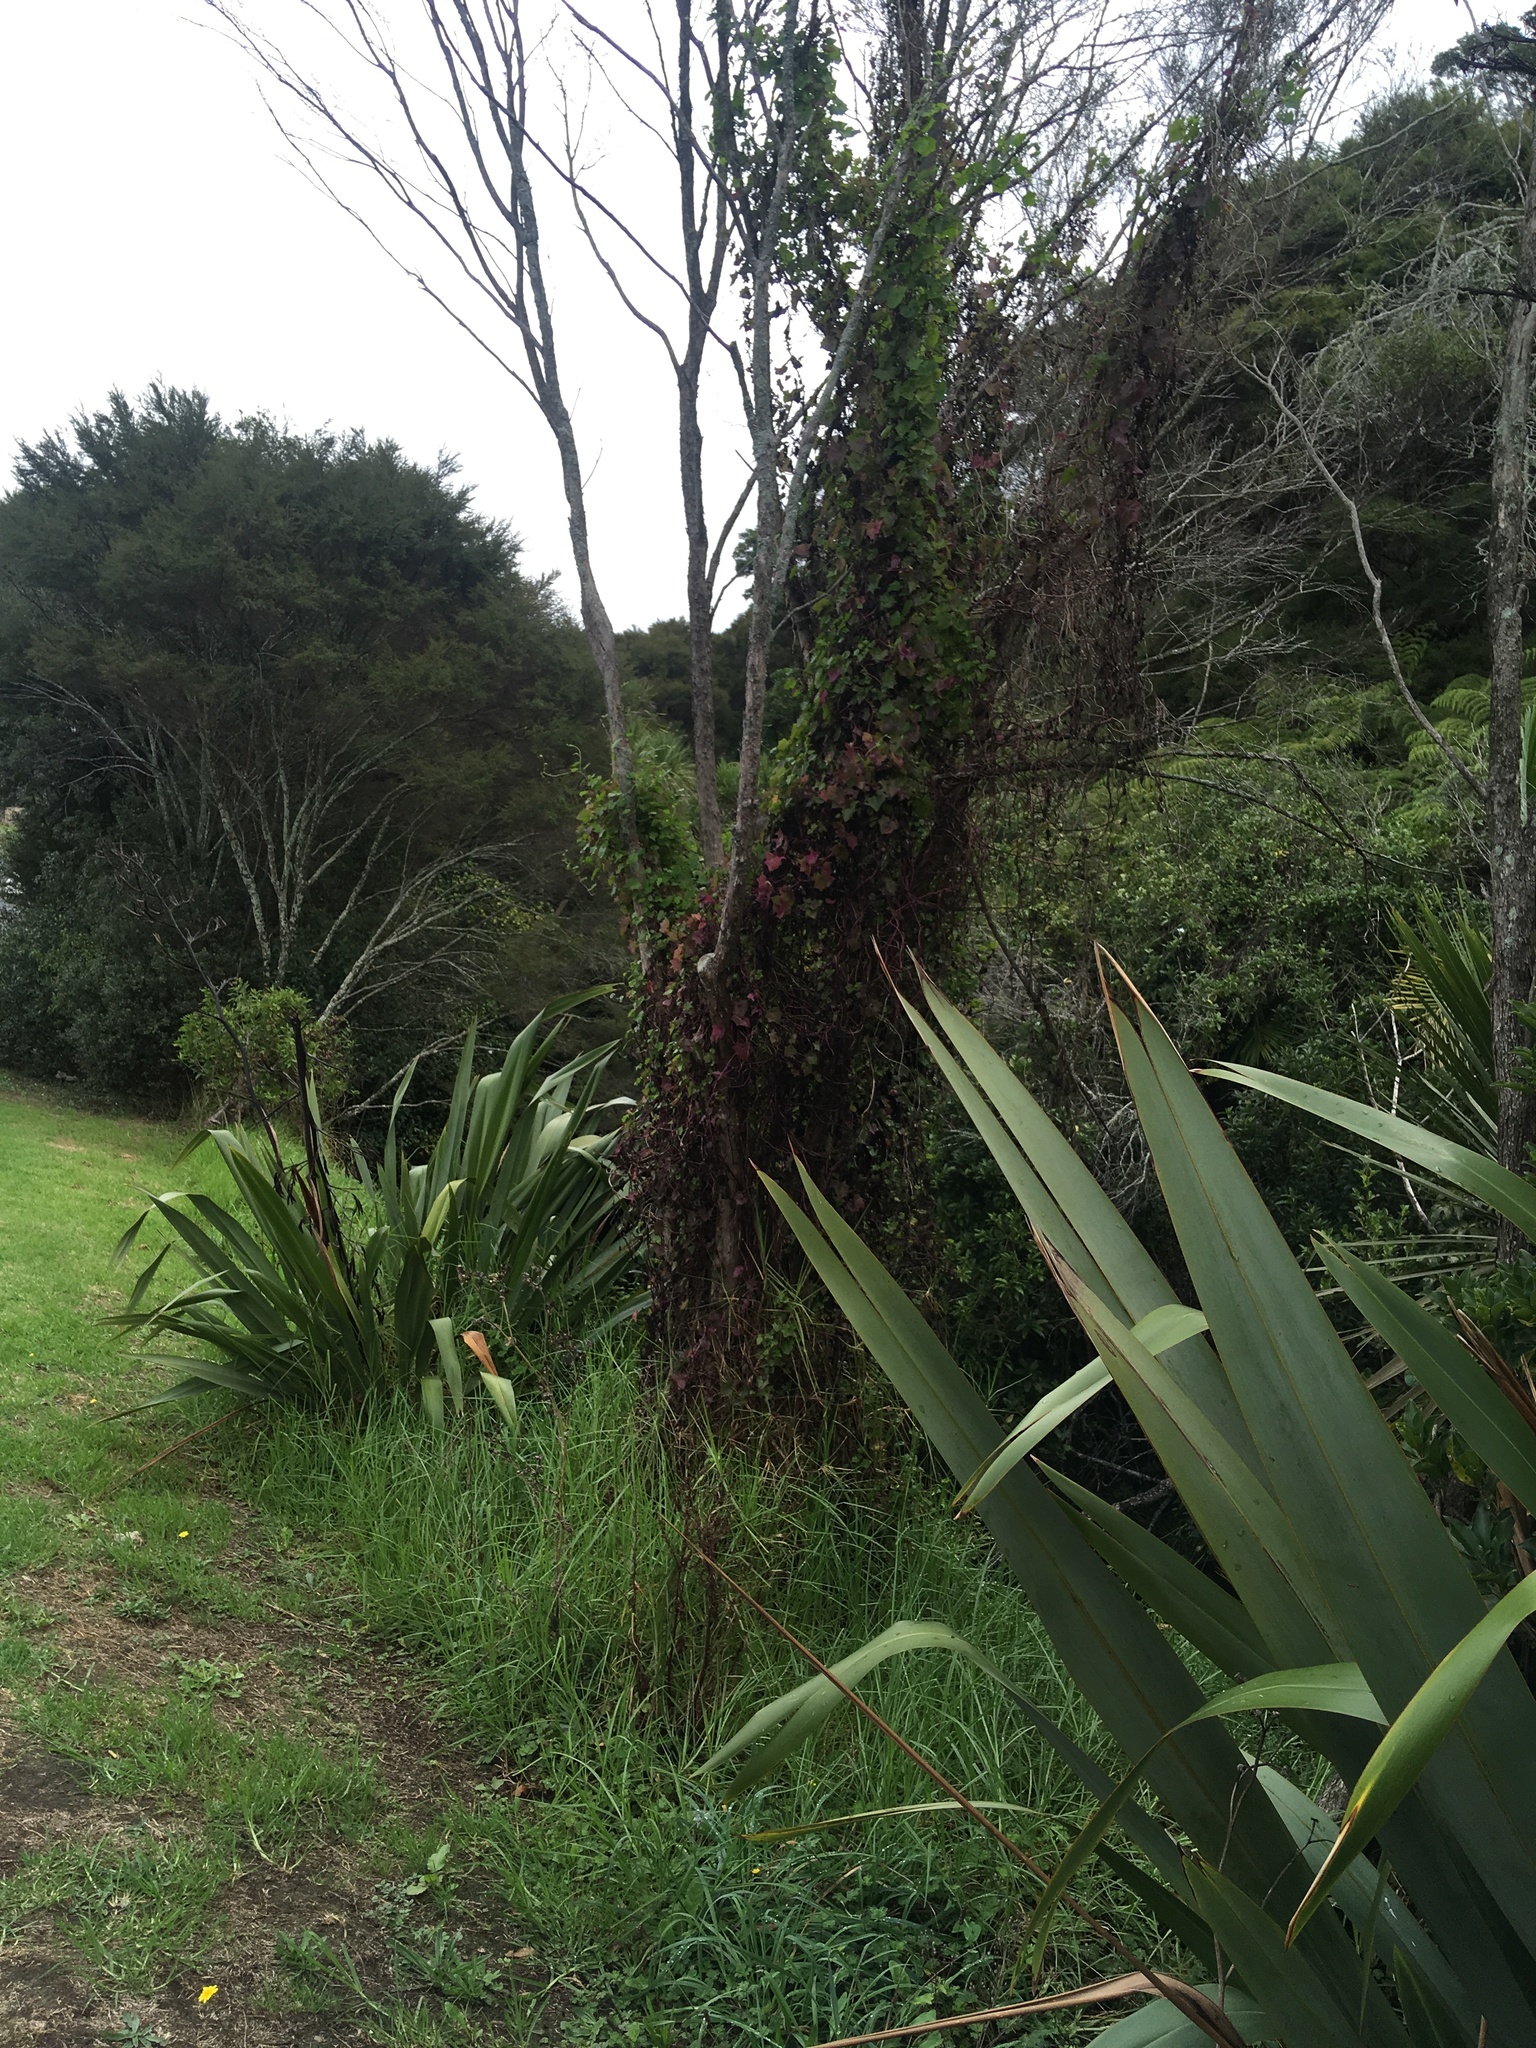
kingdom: Plantae
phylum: Tracheophyta
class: Magnoliopsida
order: Asterales
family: Asteraceae
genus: Delairea
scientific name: Delairea odorata
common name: Cape-ivy
